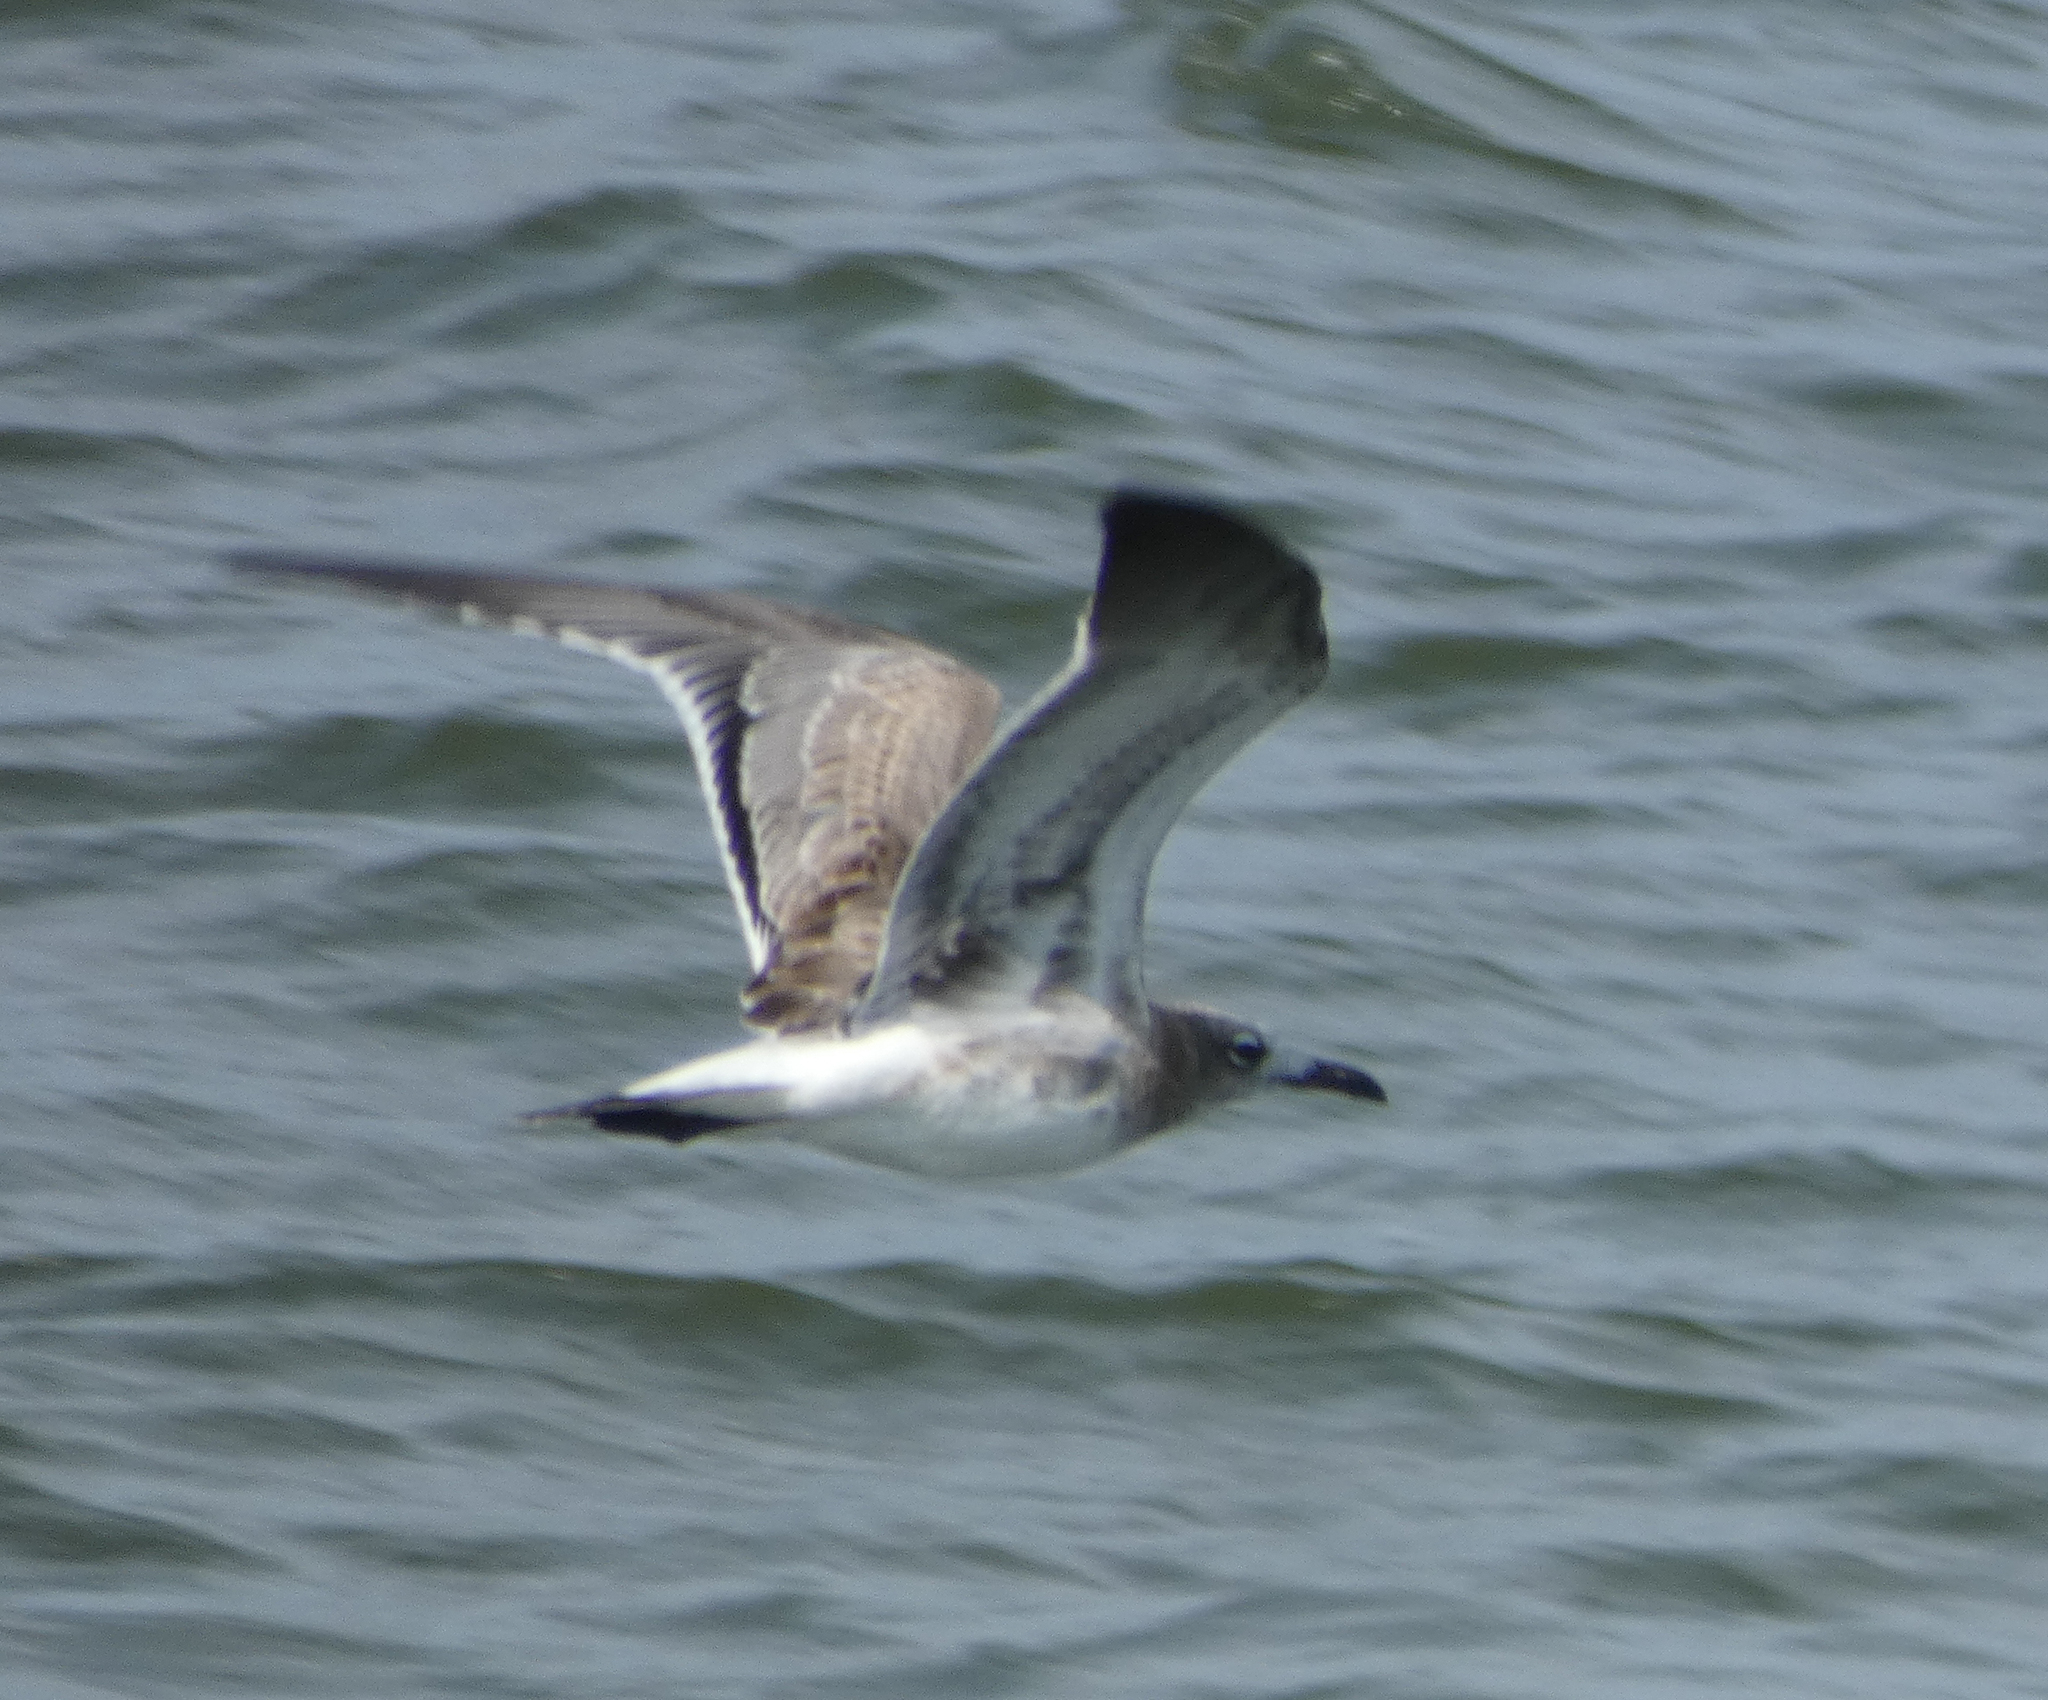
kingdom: Animalia
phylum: Chordata
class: Aves
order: Charadriiformes
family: Laridae
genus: Leucophaeus
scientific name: Leucophaeus atricilla
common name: Laughing gull
